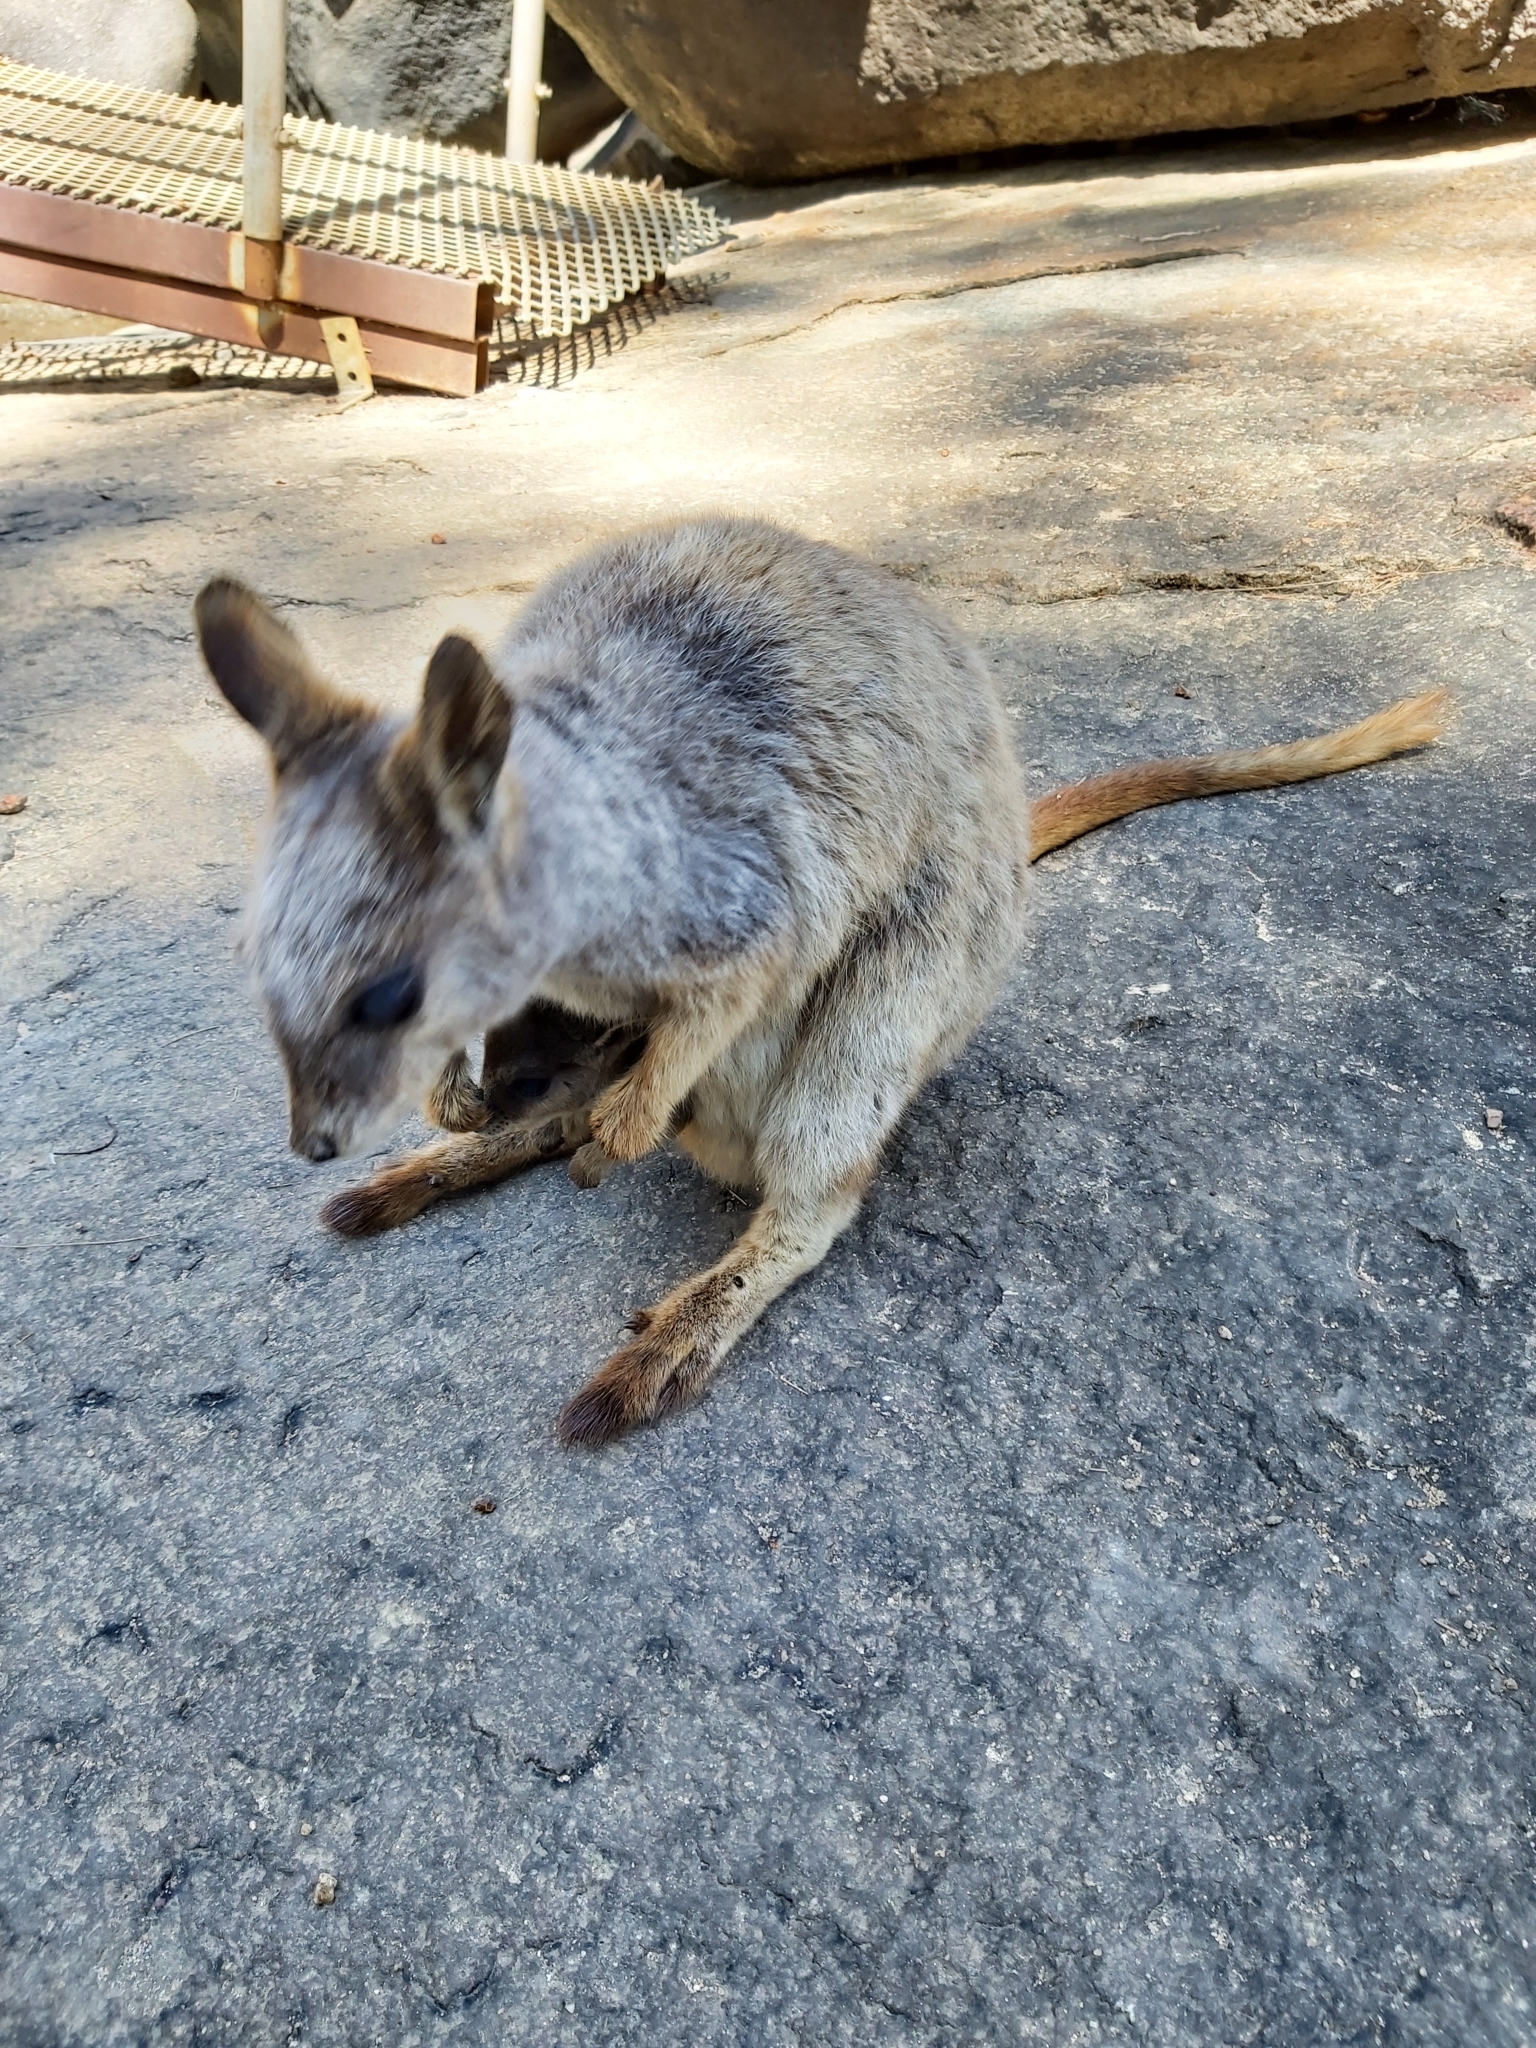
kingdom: Animalia
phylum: Chordata
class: Mammalia
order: Diprotodontia
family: Macropodidae
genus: Petrogale
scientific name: Petrogale mareeba
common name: Mareeba rock-wallaby
